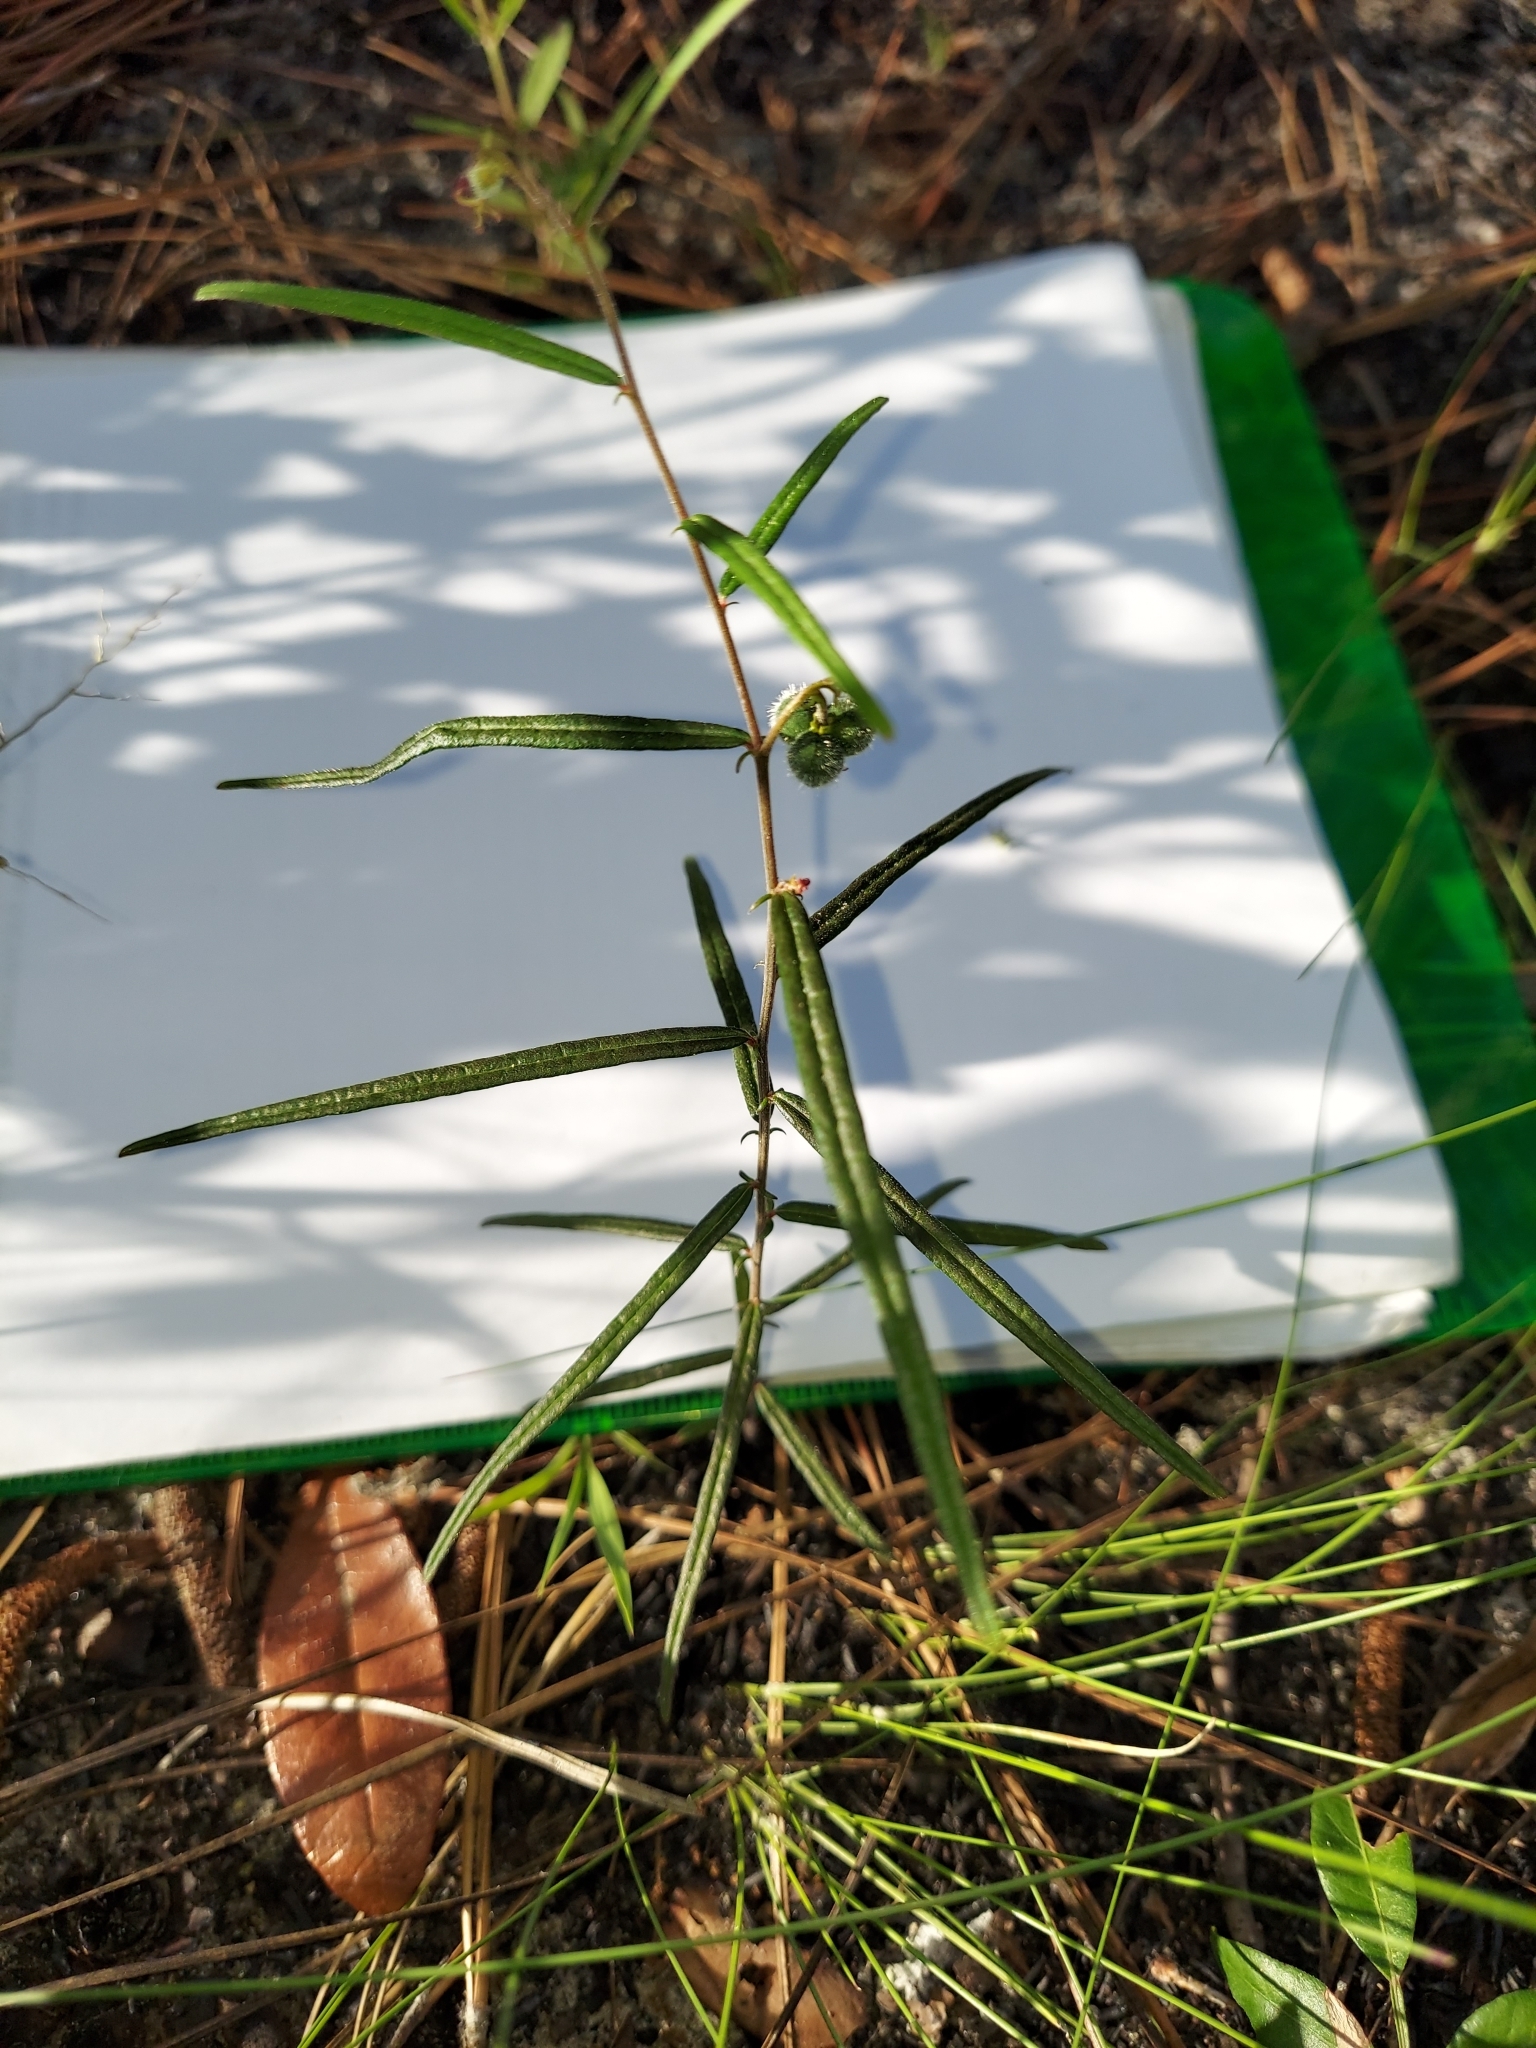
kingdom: Plantae
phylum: Tracheophyta
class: Magnoliopsida
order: Malpighiales
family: Euphorbiaceae
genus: Tragia
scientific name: Tragia urens
